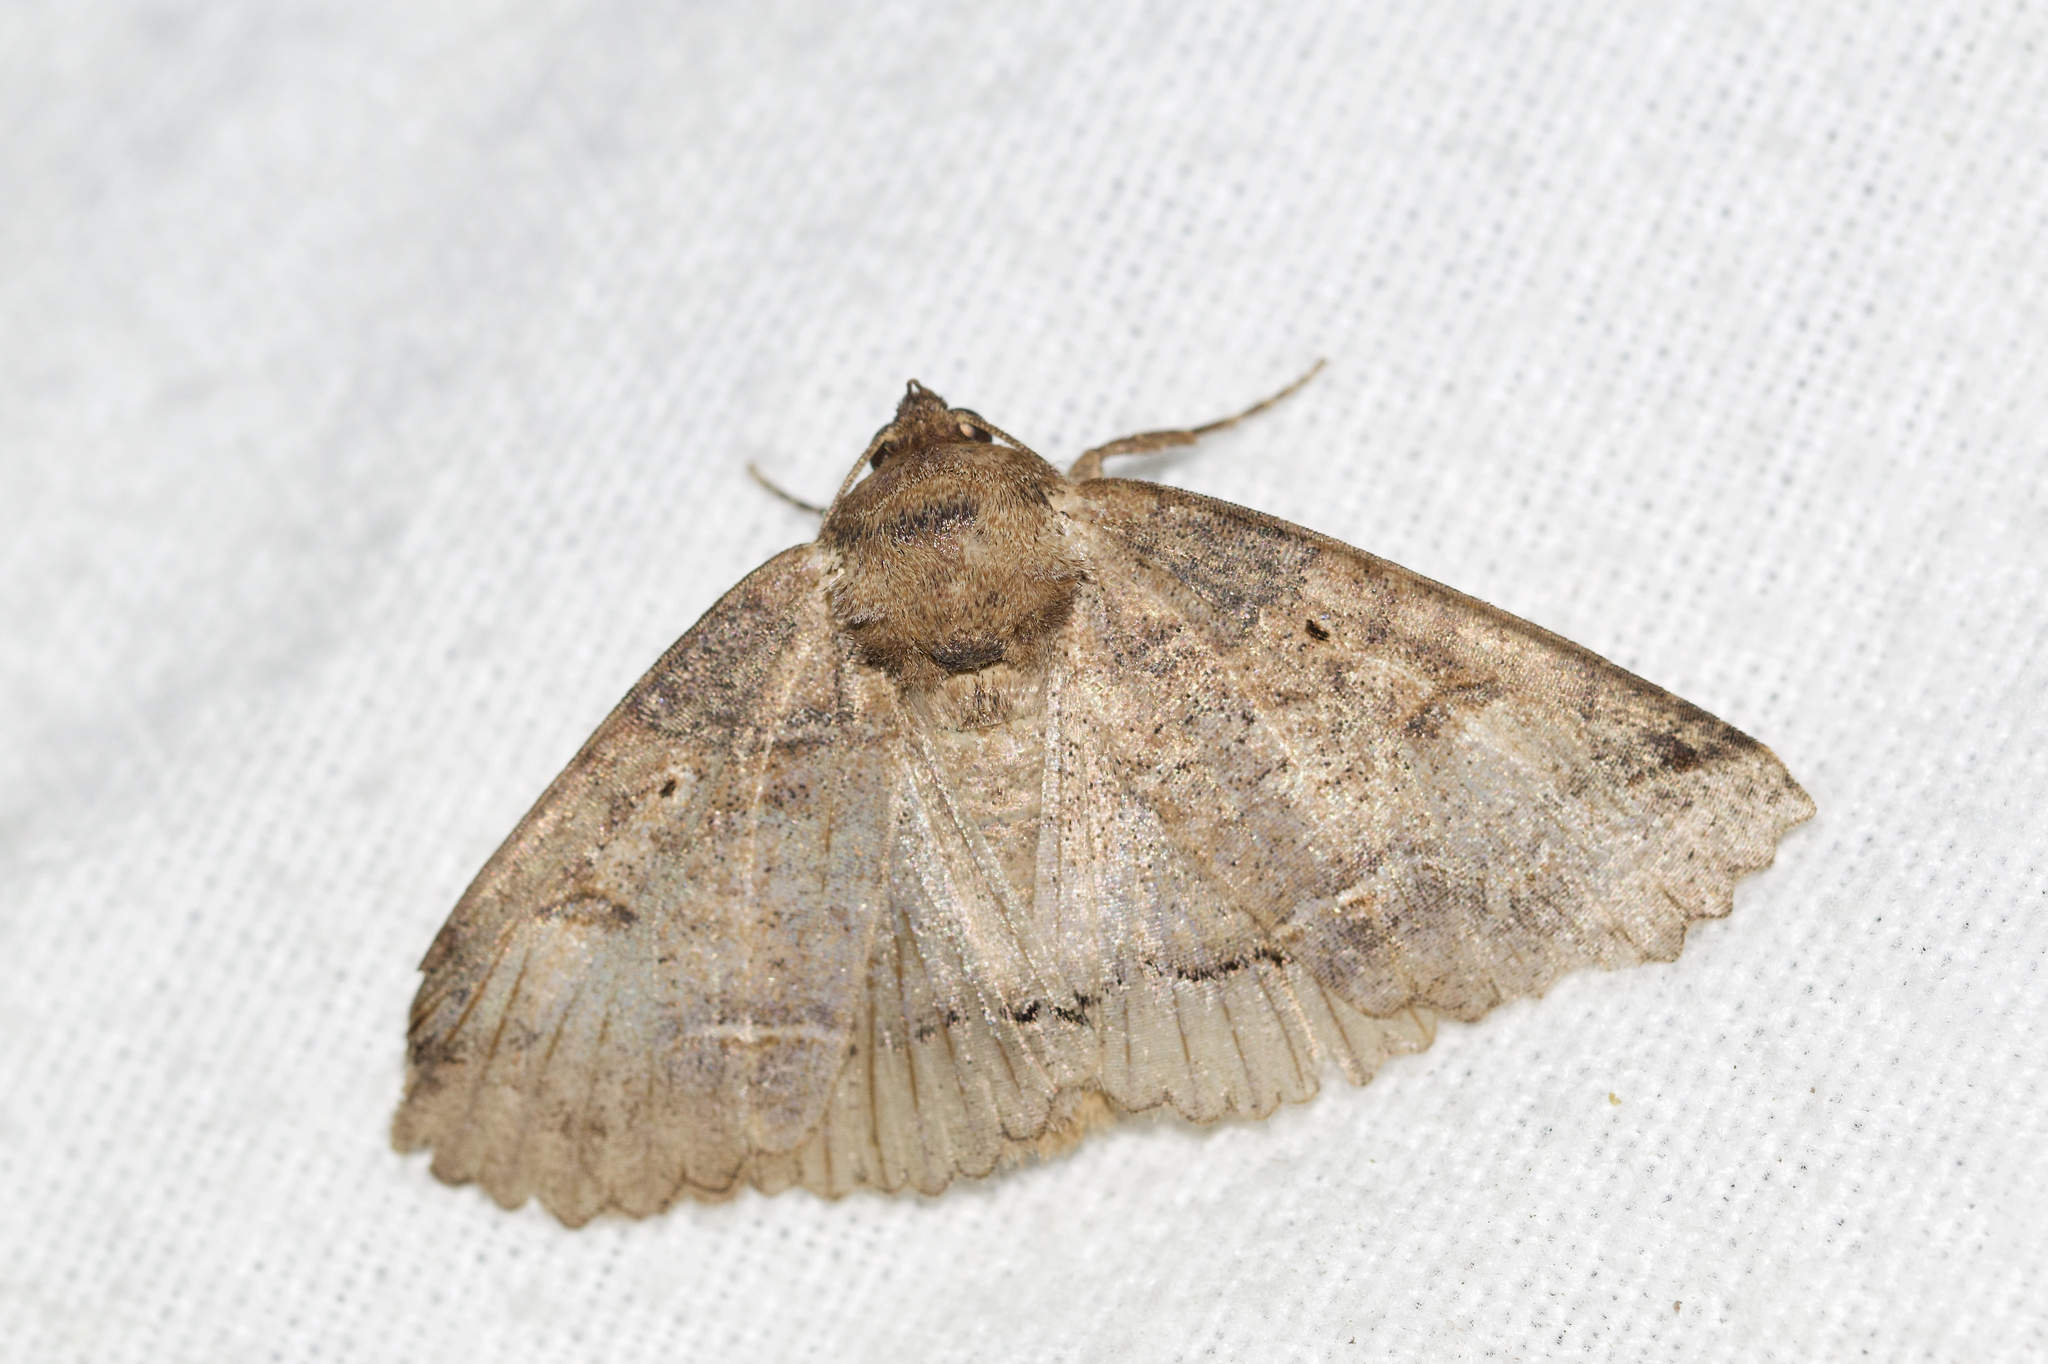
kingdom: Animalia
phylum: Arthropoda
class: Insecta
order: Lepidoptera
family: Erebidae
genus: Zale
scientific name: Zale unilineata
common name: One-lined zale moth
